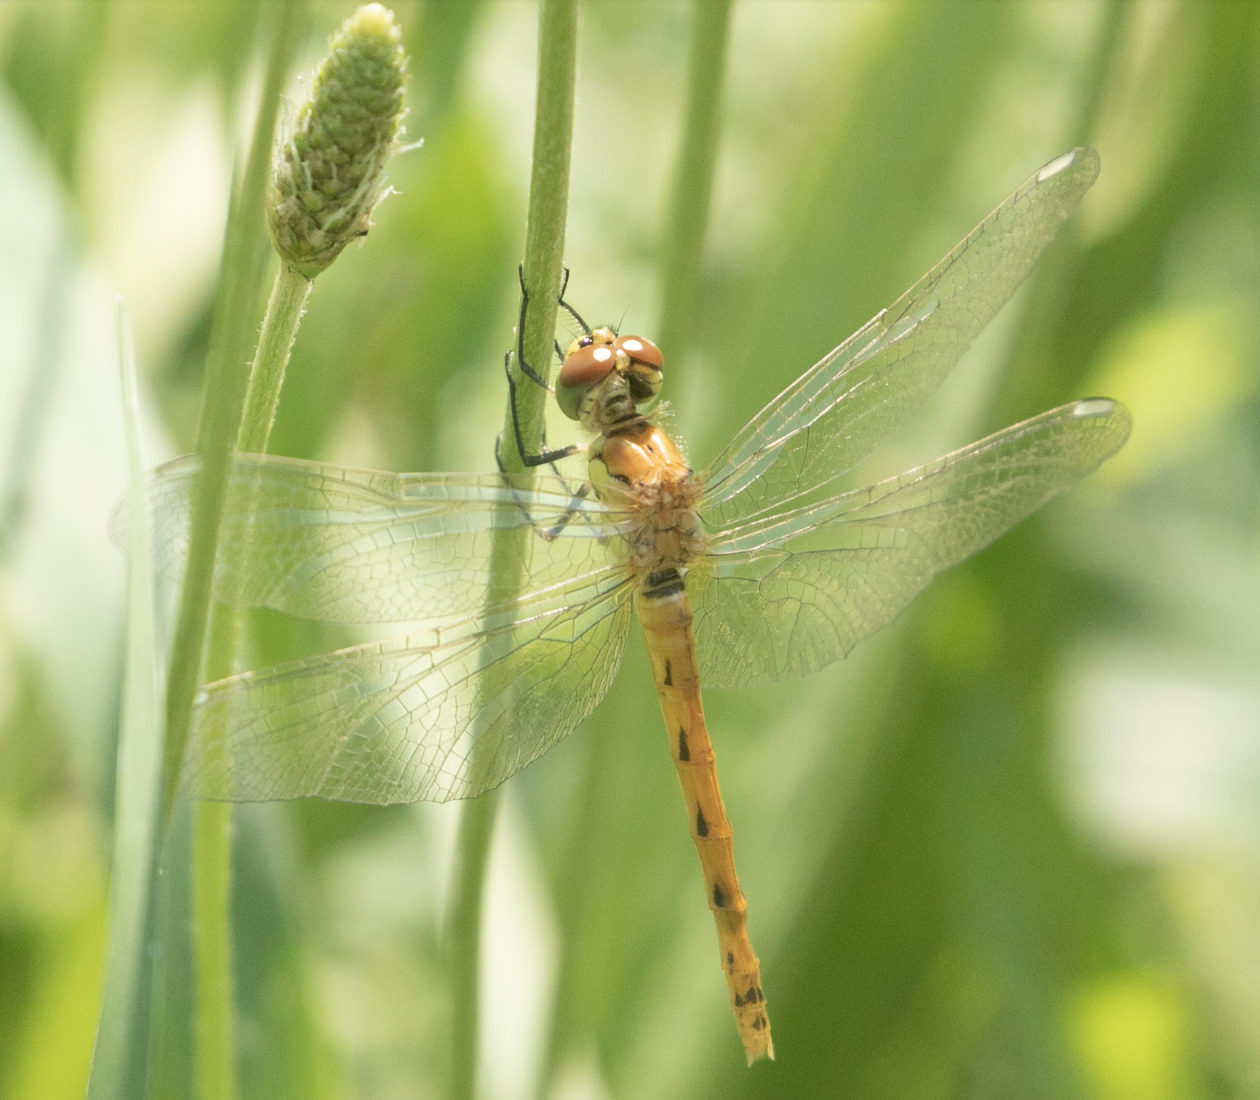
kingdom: Animalia
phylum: Arthropoda
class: Insecta
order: Odonata
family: Libellulidae
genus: Sympetrum
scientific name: Sympetrum depressiusculum
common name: Spotted darter
